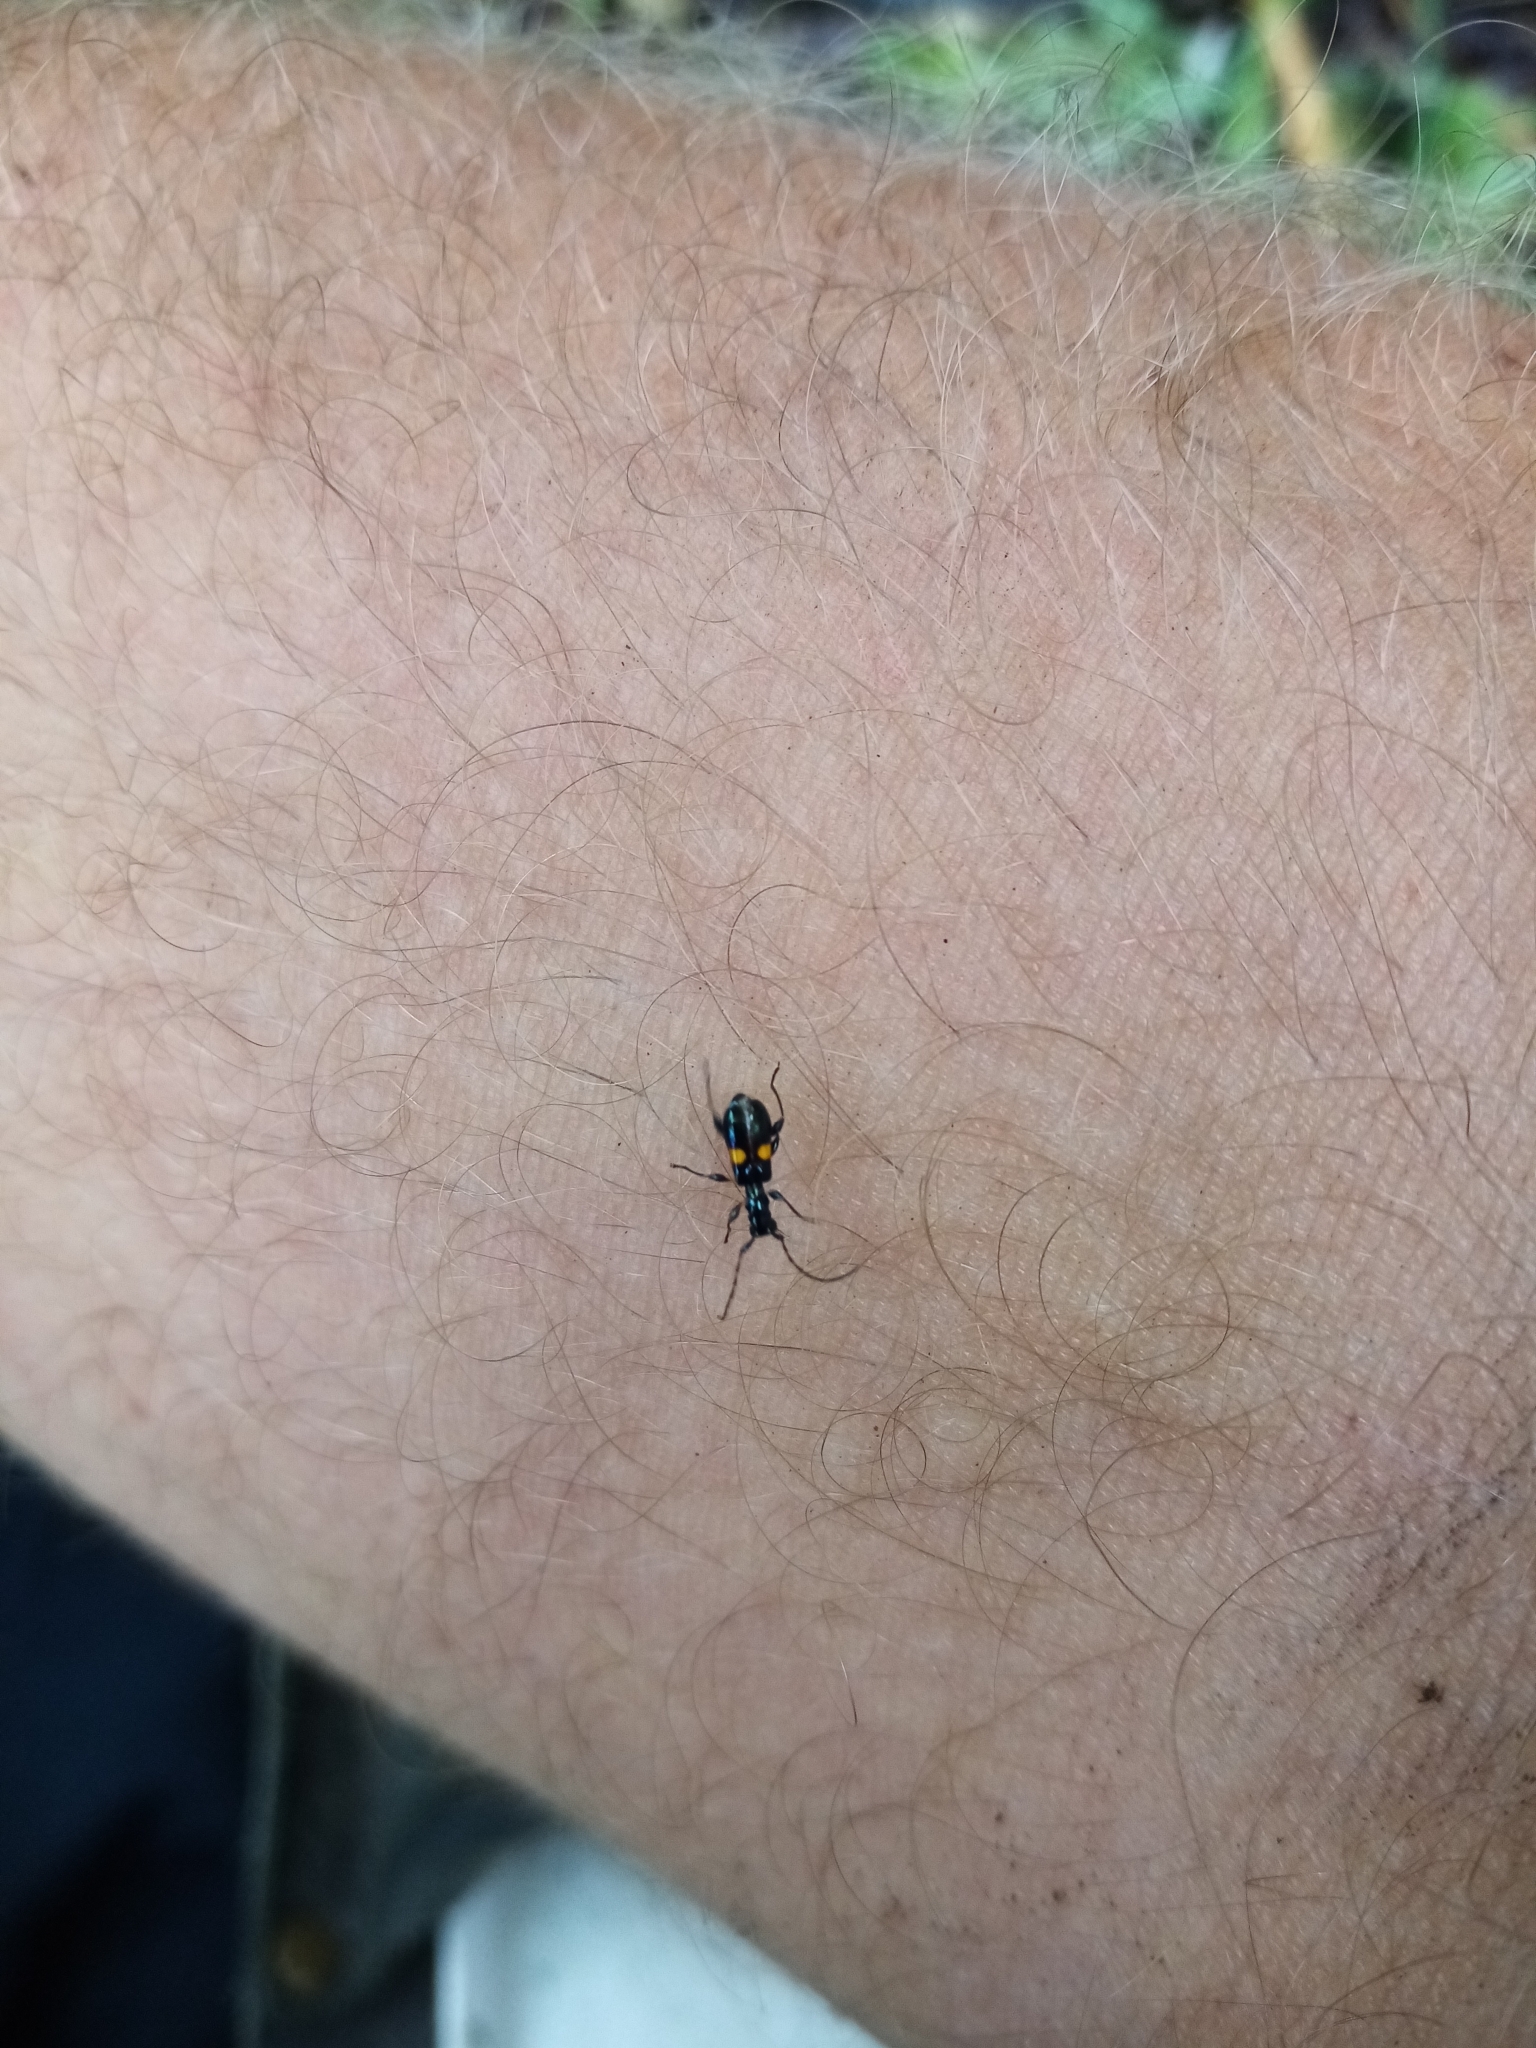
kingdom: Animalia
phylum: Arthropoda
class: Insecta
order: Coleoptera
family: Cerambycidae
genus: Zorion
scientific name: Zorion guttigerum
